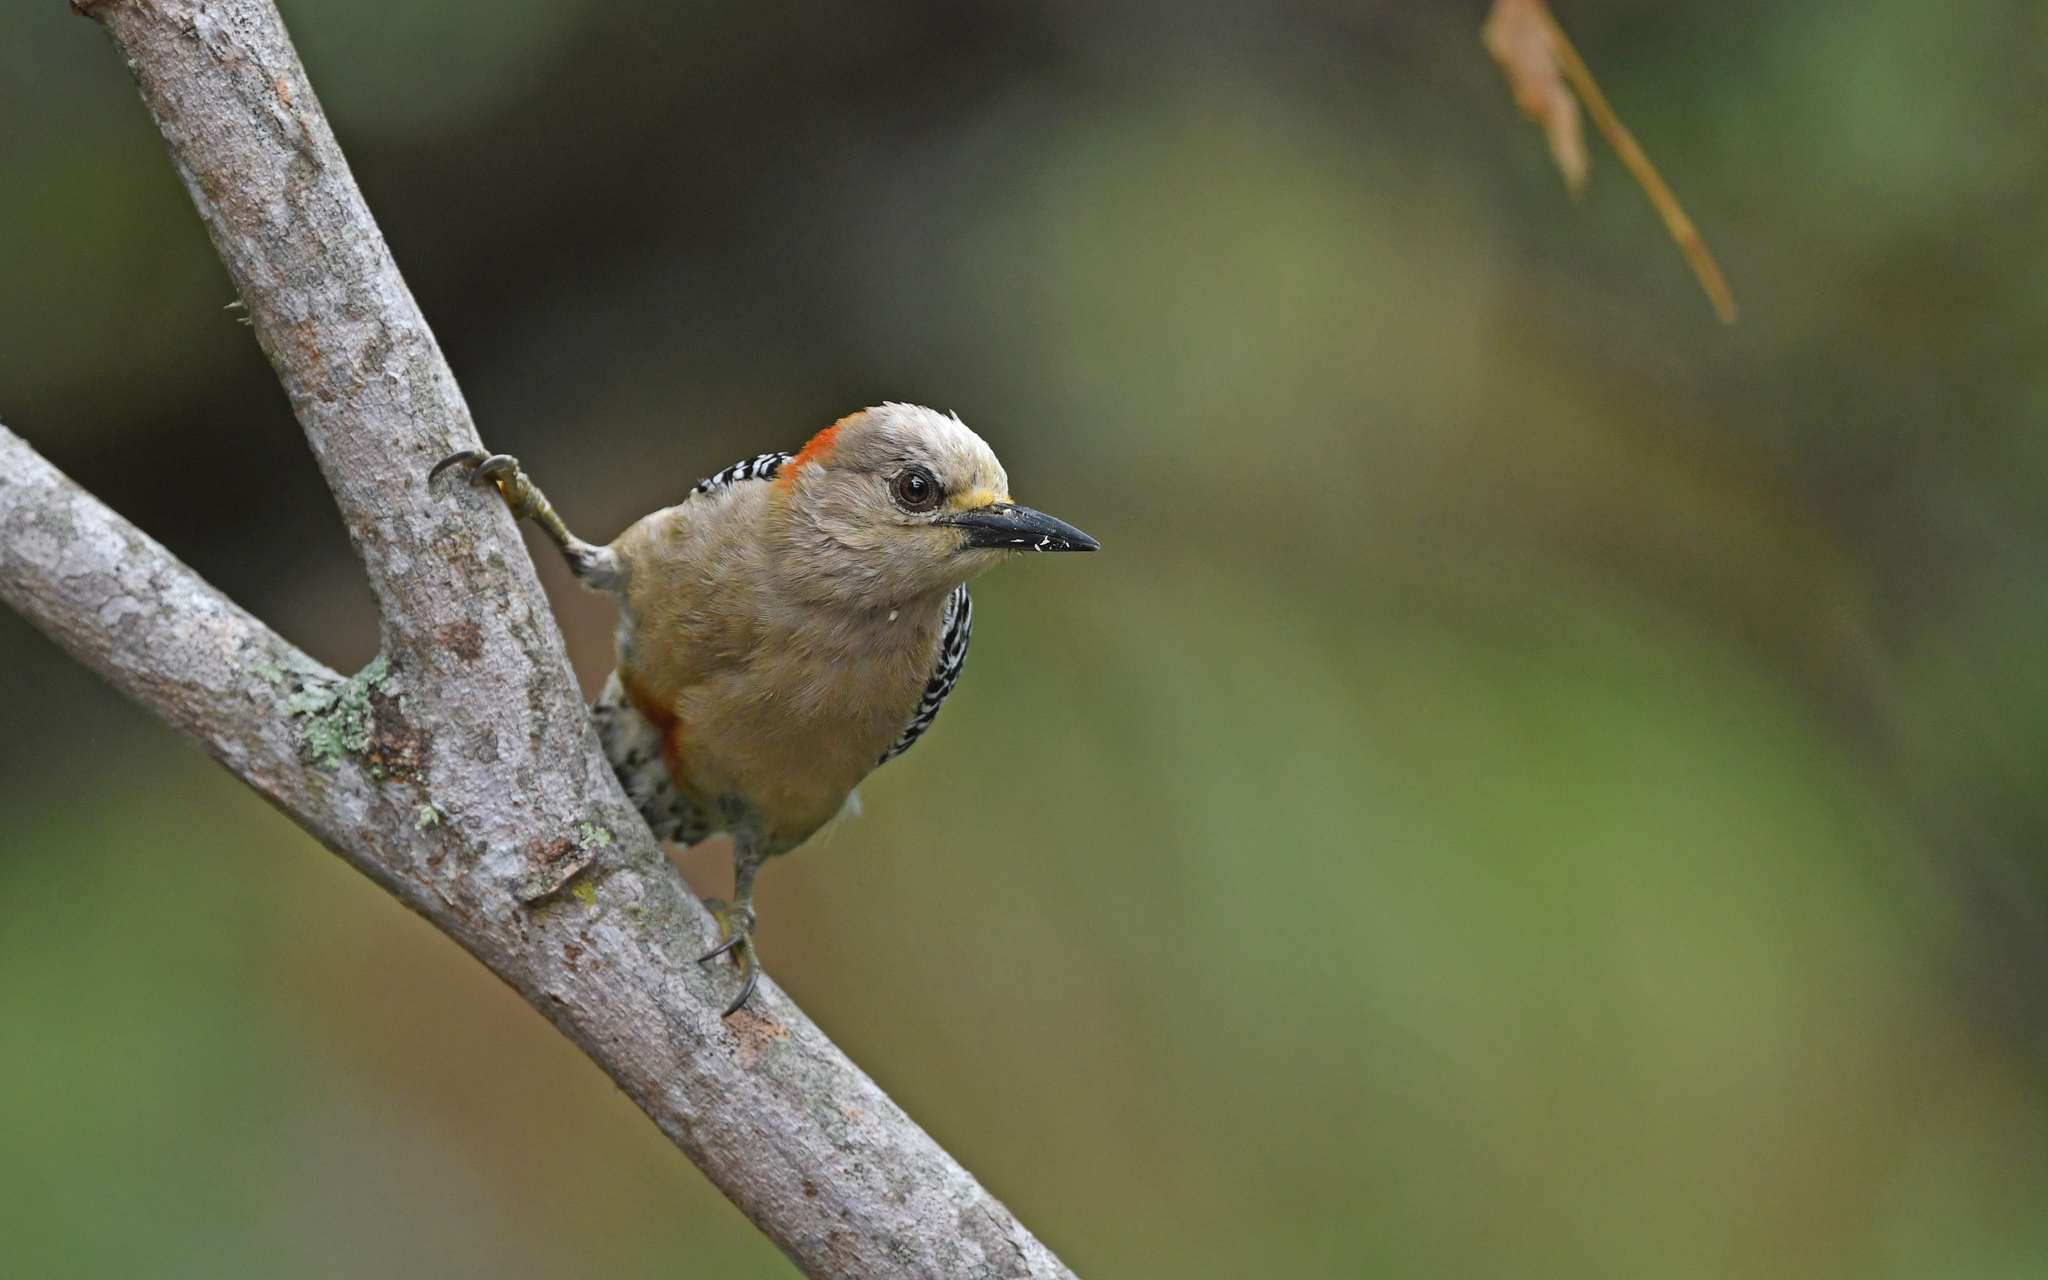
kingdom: Animalia
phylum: Chordata
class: Aves
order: Piciformes
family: Picidae
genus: Melanerpes
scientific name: Melanerpes rubricapillus
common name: Red-crowned woodpecker
